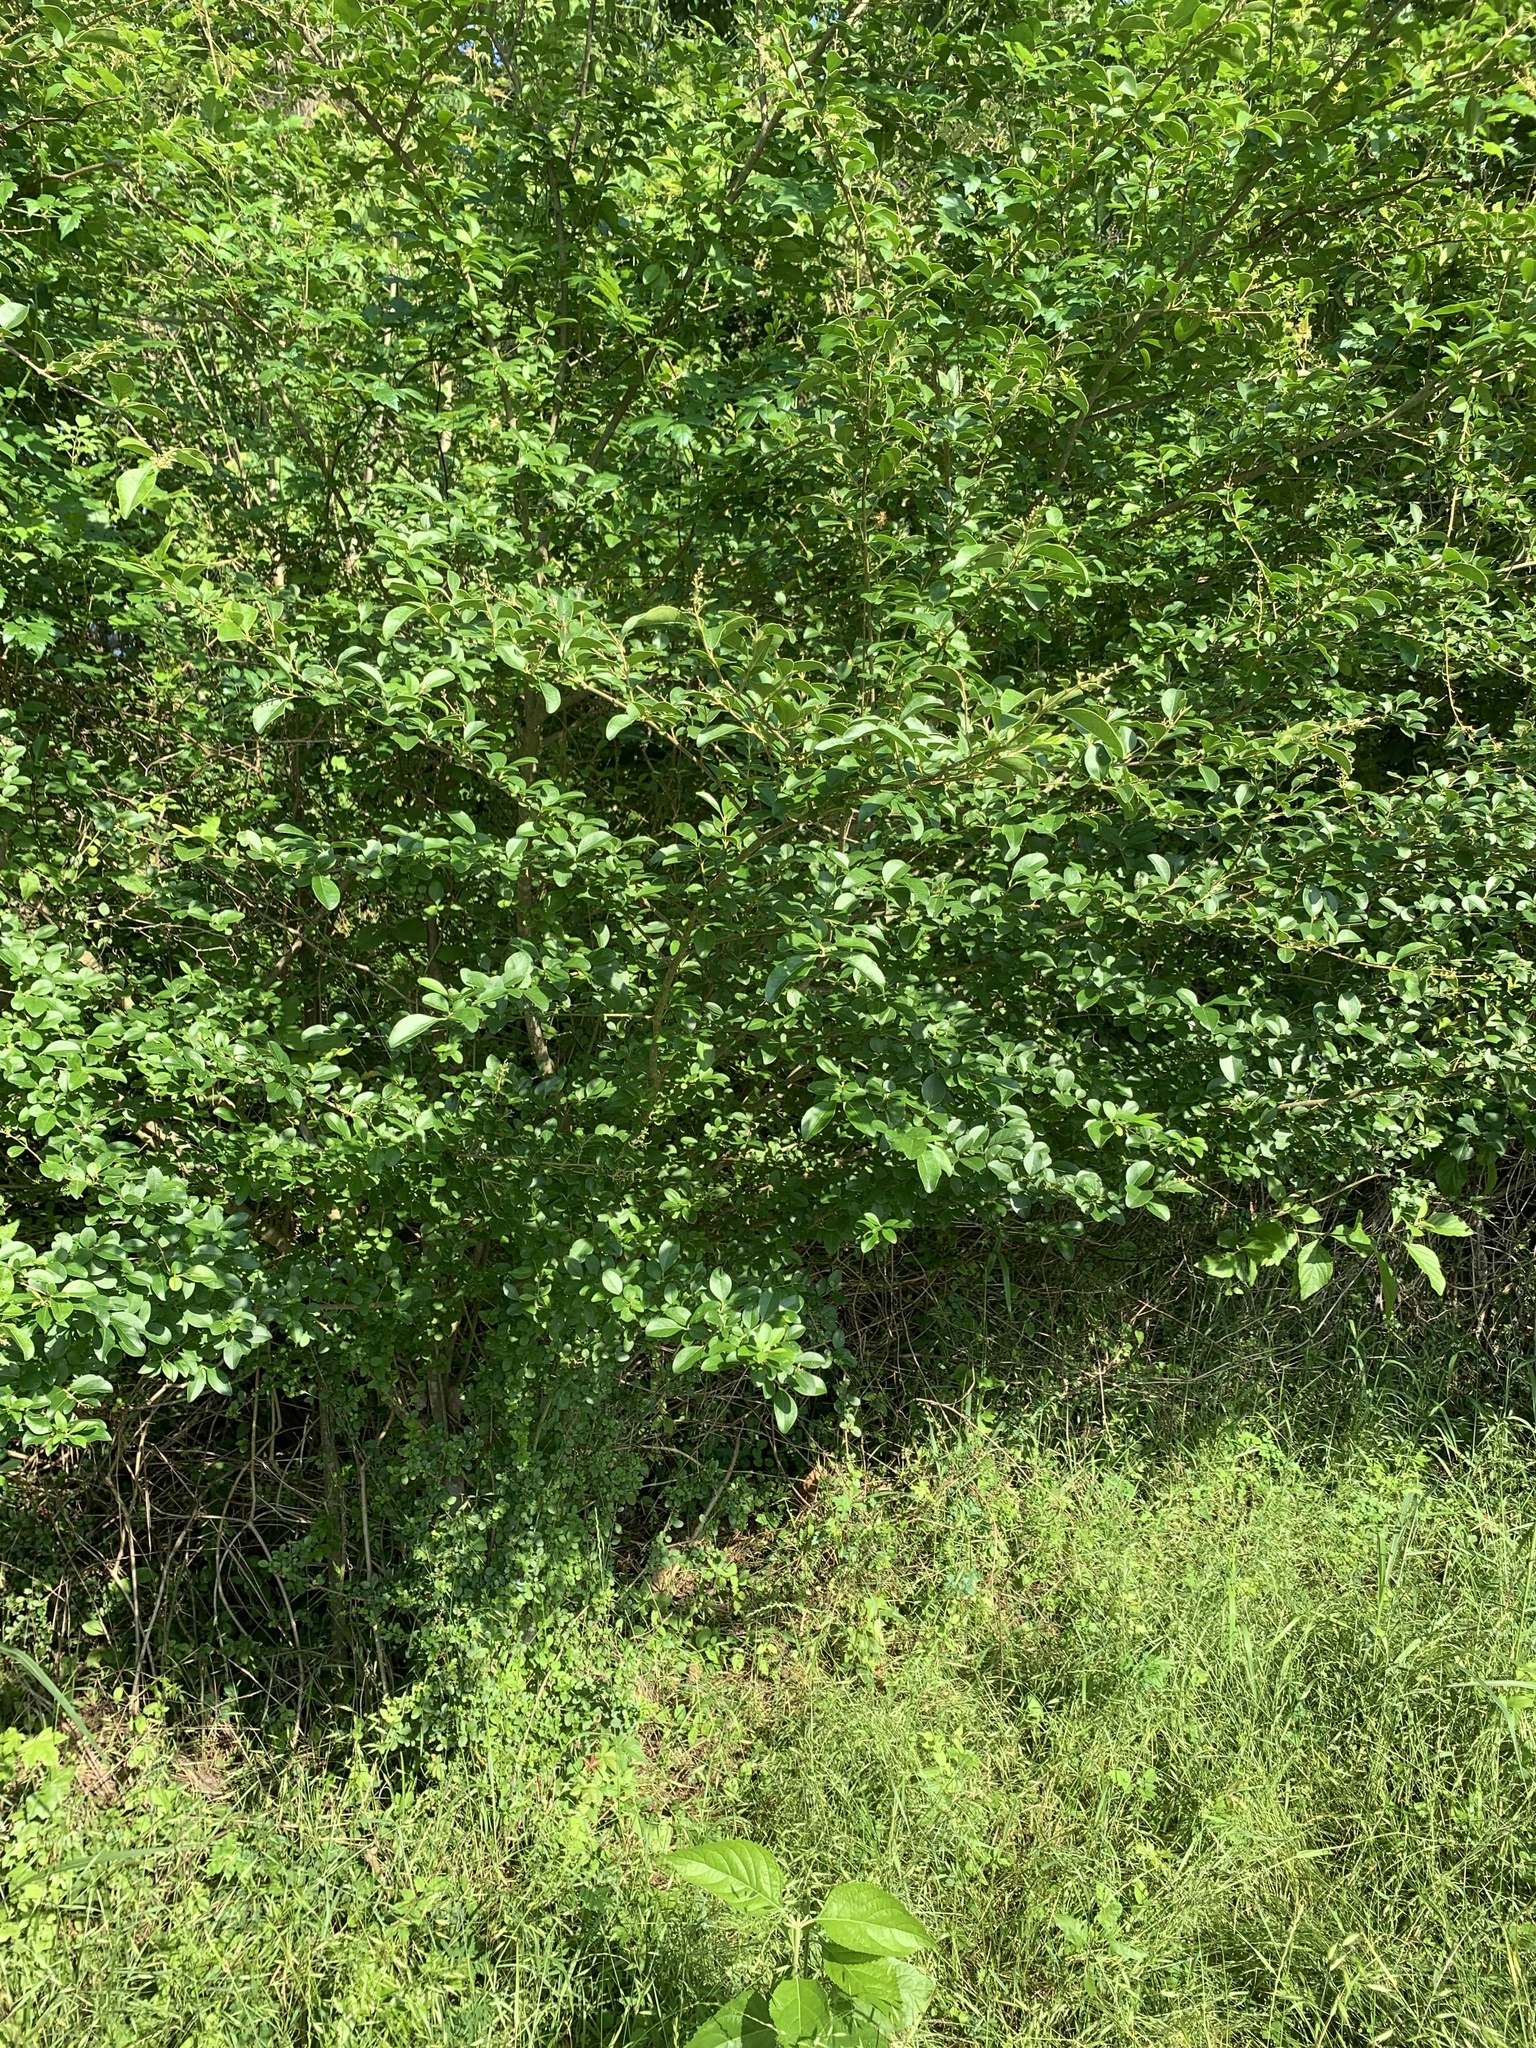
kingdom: Plantae
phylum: Tracheophyta
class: Magnoliopsida
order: Lamiales
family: Oleaceae
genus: Ligustrum
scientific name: Ligustrum sinense
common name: Chinese privet
